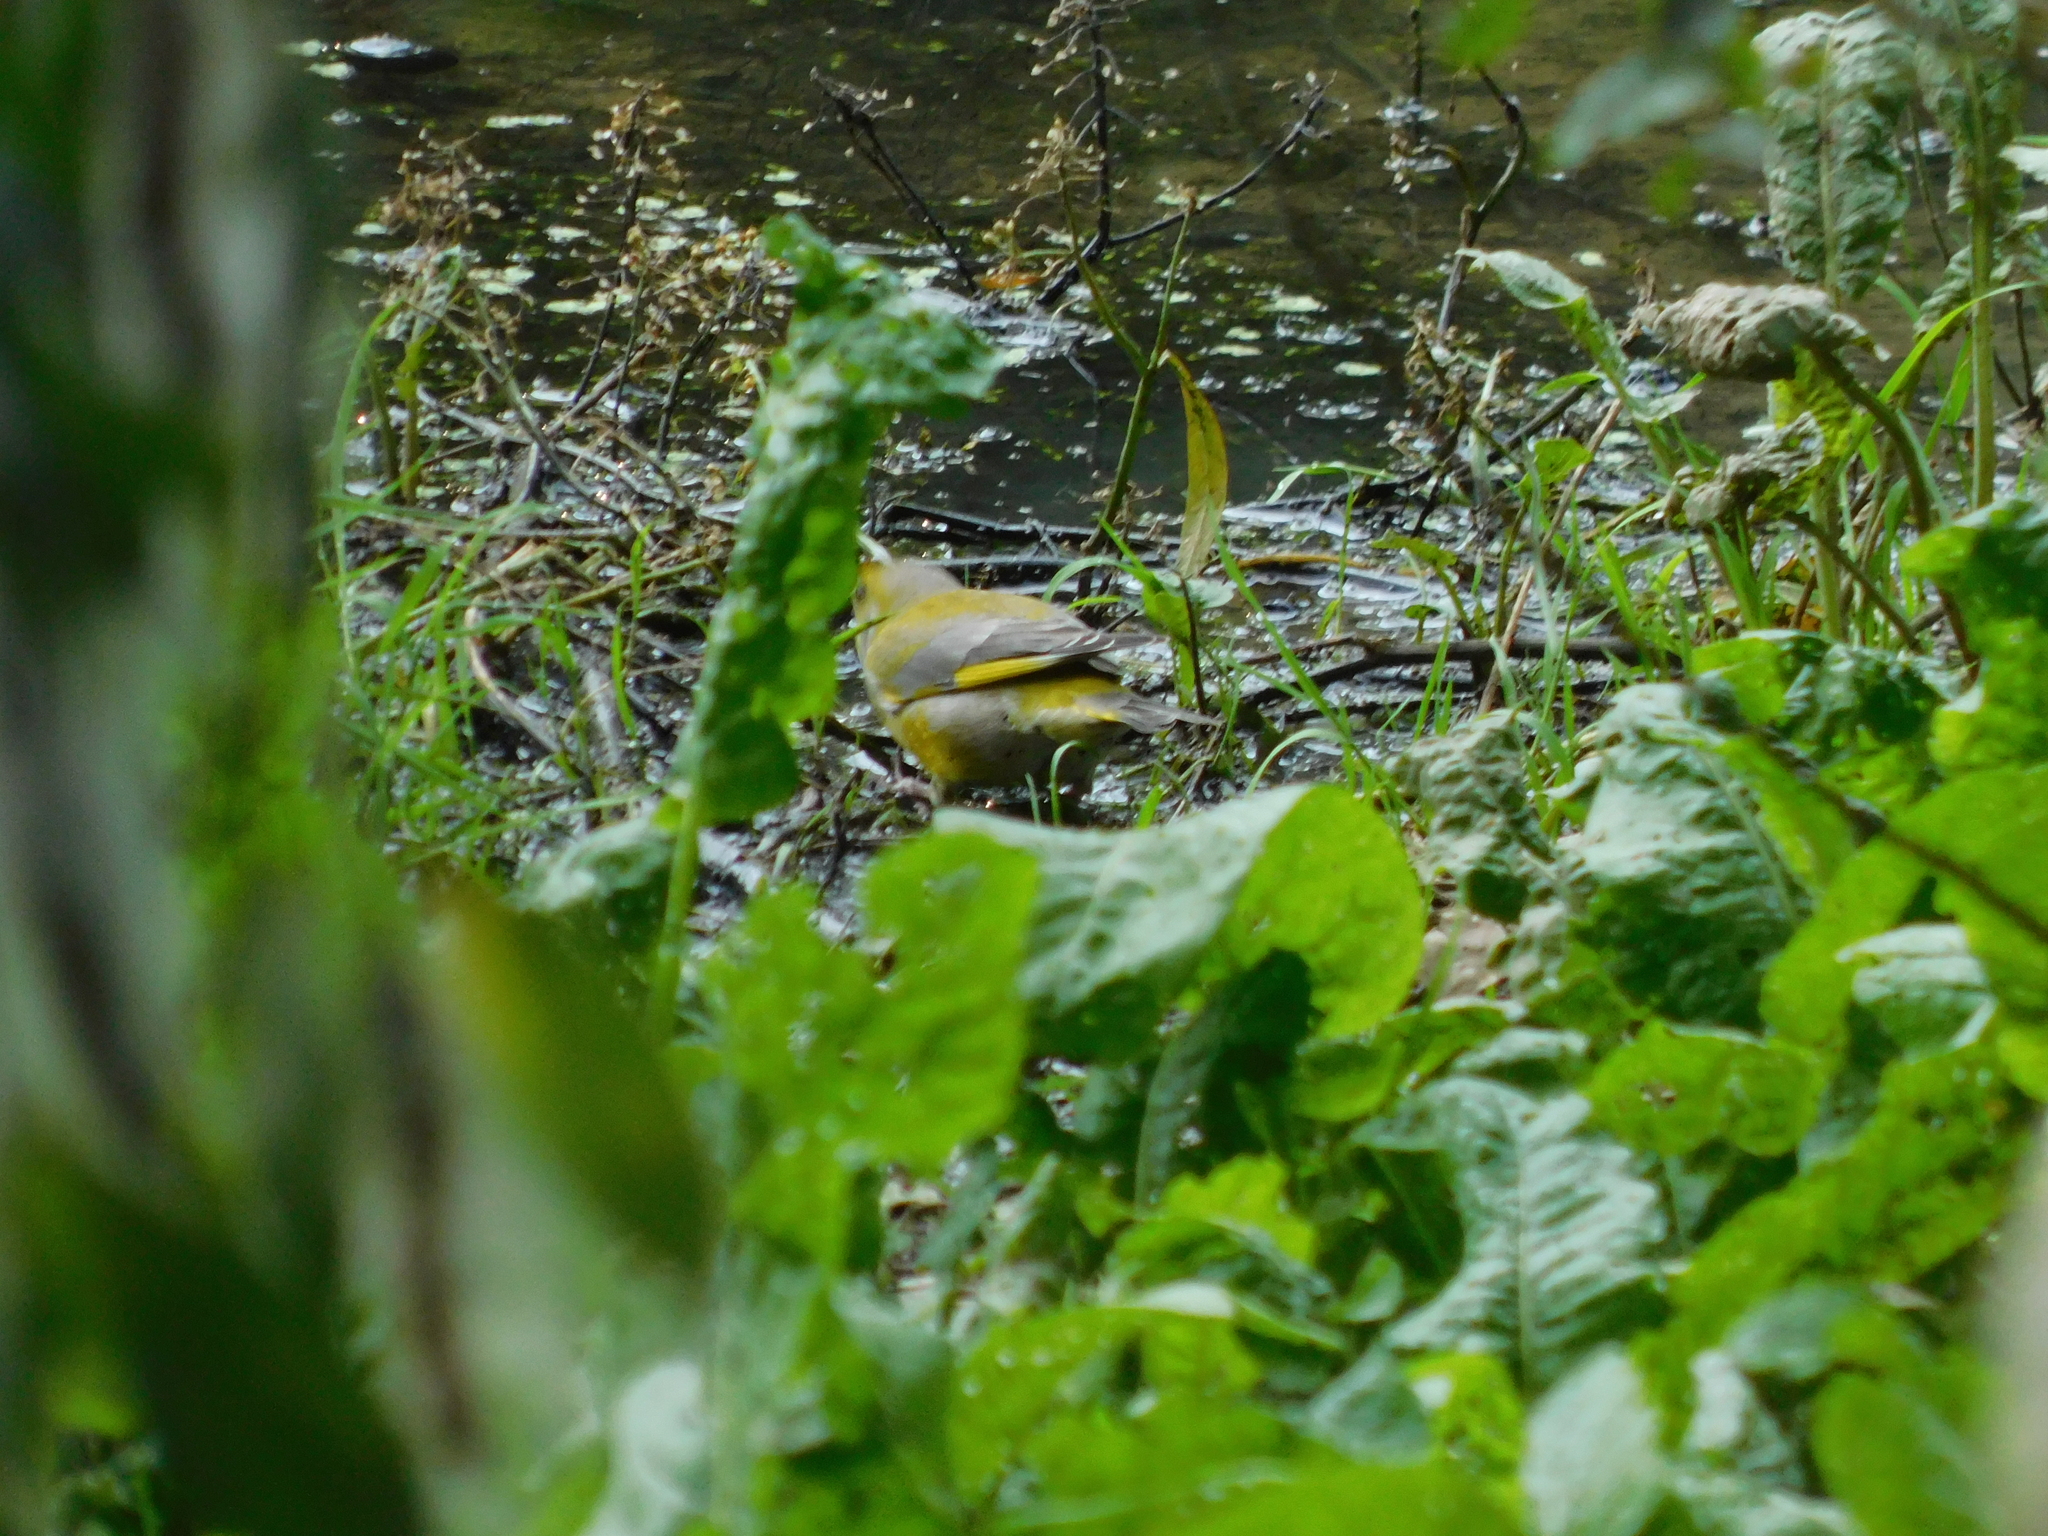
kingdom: Plantae
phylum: Tracheophyta
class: Liliopsida
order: Poales
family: Poaceae
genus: Chloris
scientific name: Chloris chloris
